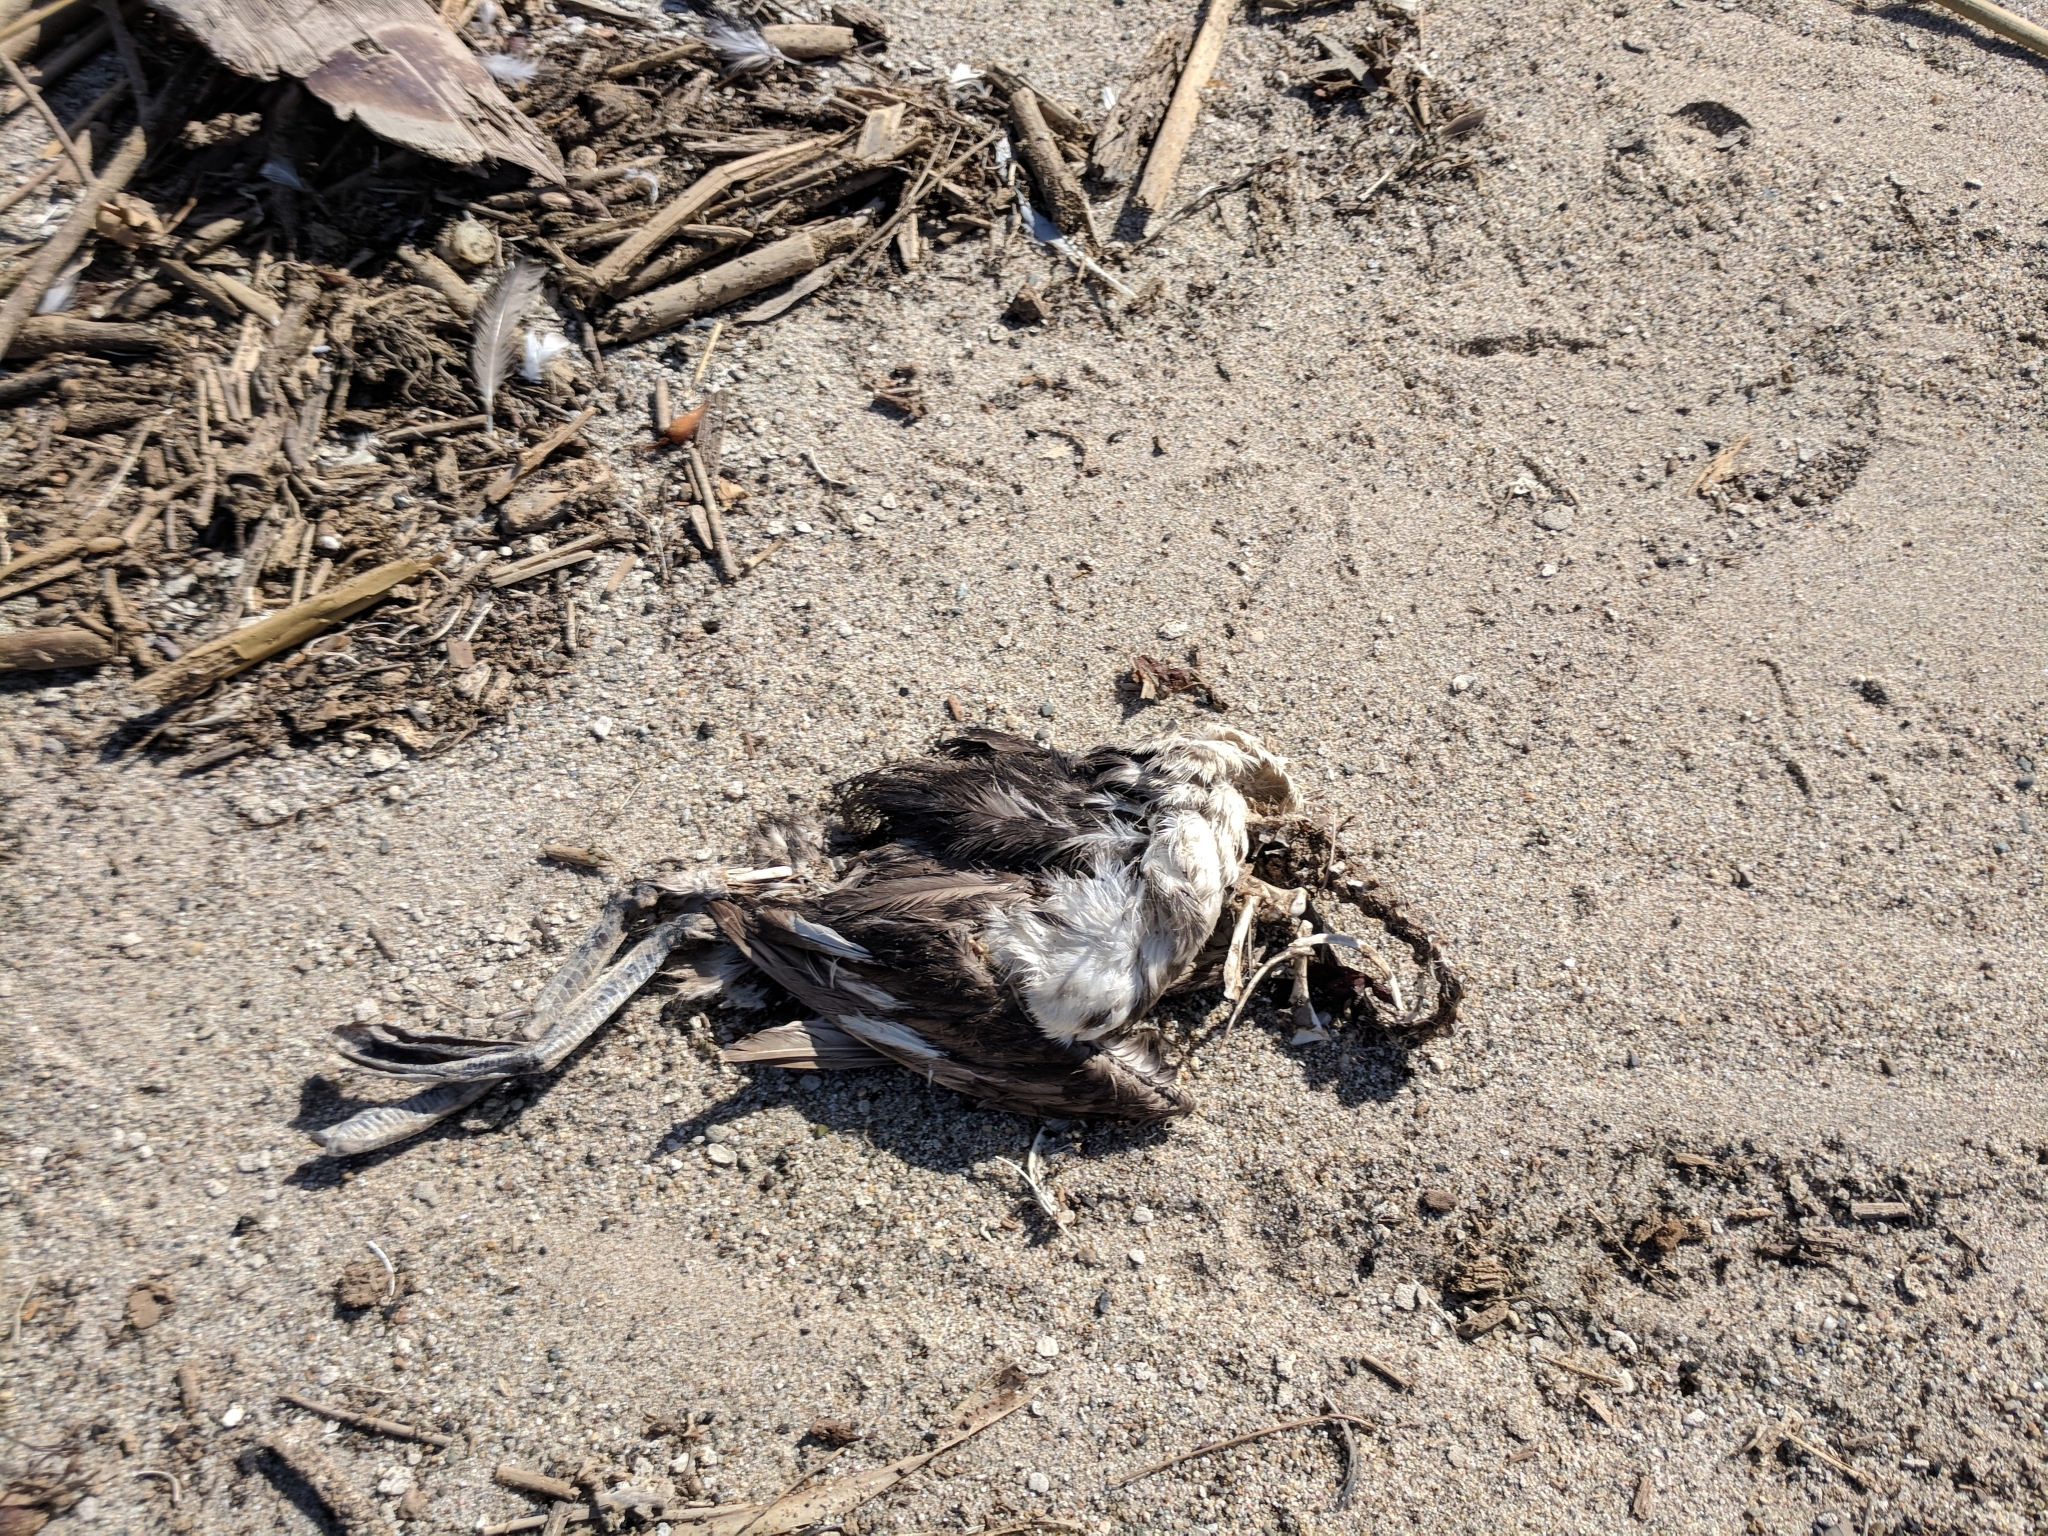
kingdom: Animalia
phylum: Chordata
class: Aves
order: Podicipediformes
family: Podicipedidae
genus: Aechmophorus
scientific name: Aechmophorus
